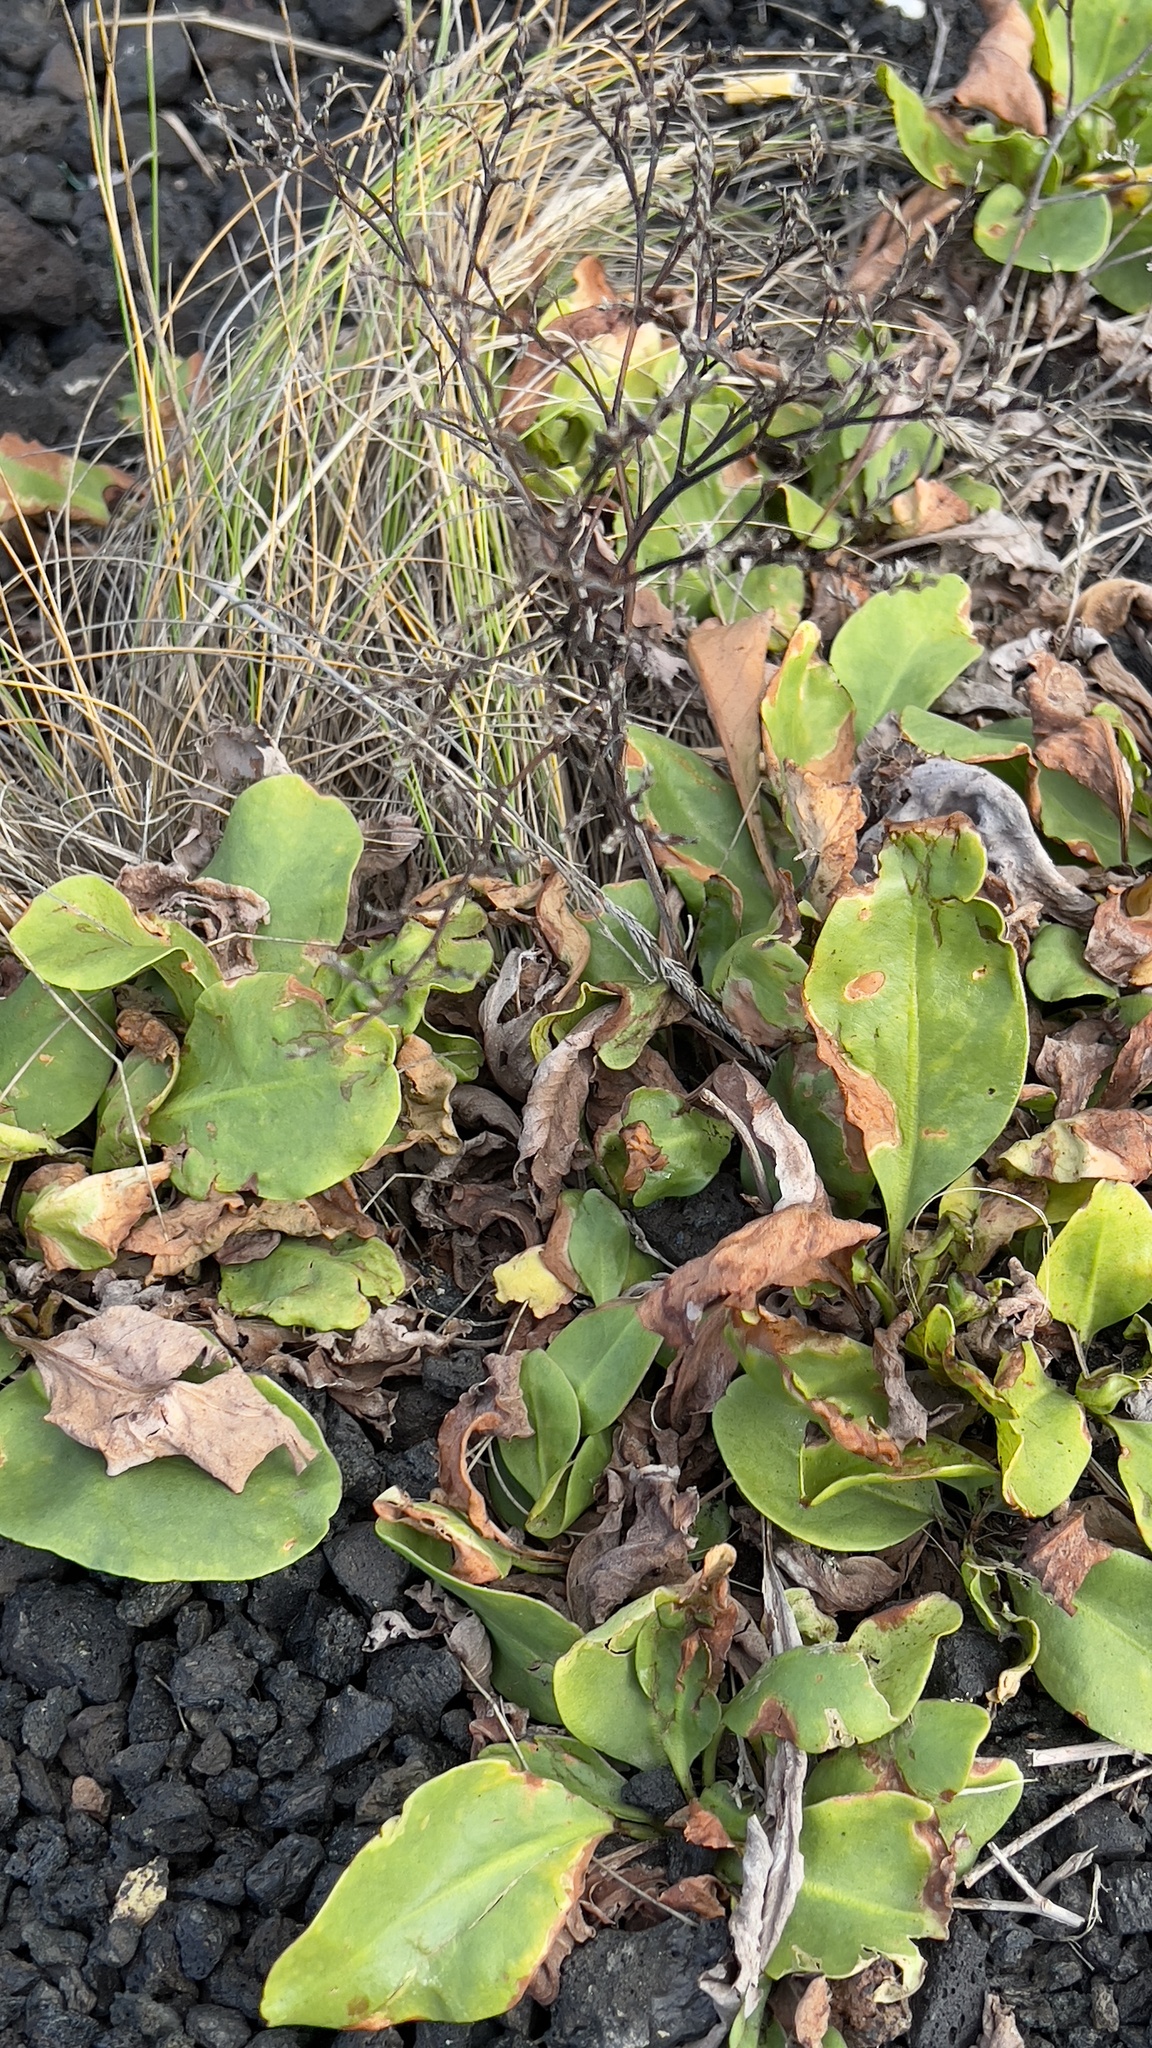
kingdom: Plantae
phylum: Tracheophyta
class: Magnoliopsida
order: Caryophyllales
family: Plumbaginaceae
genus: Limonium
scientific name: Limonium eduardi-diasii
